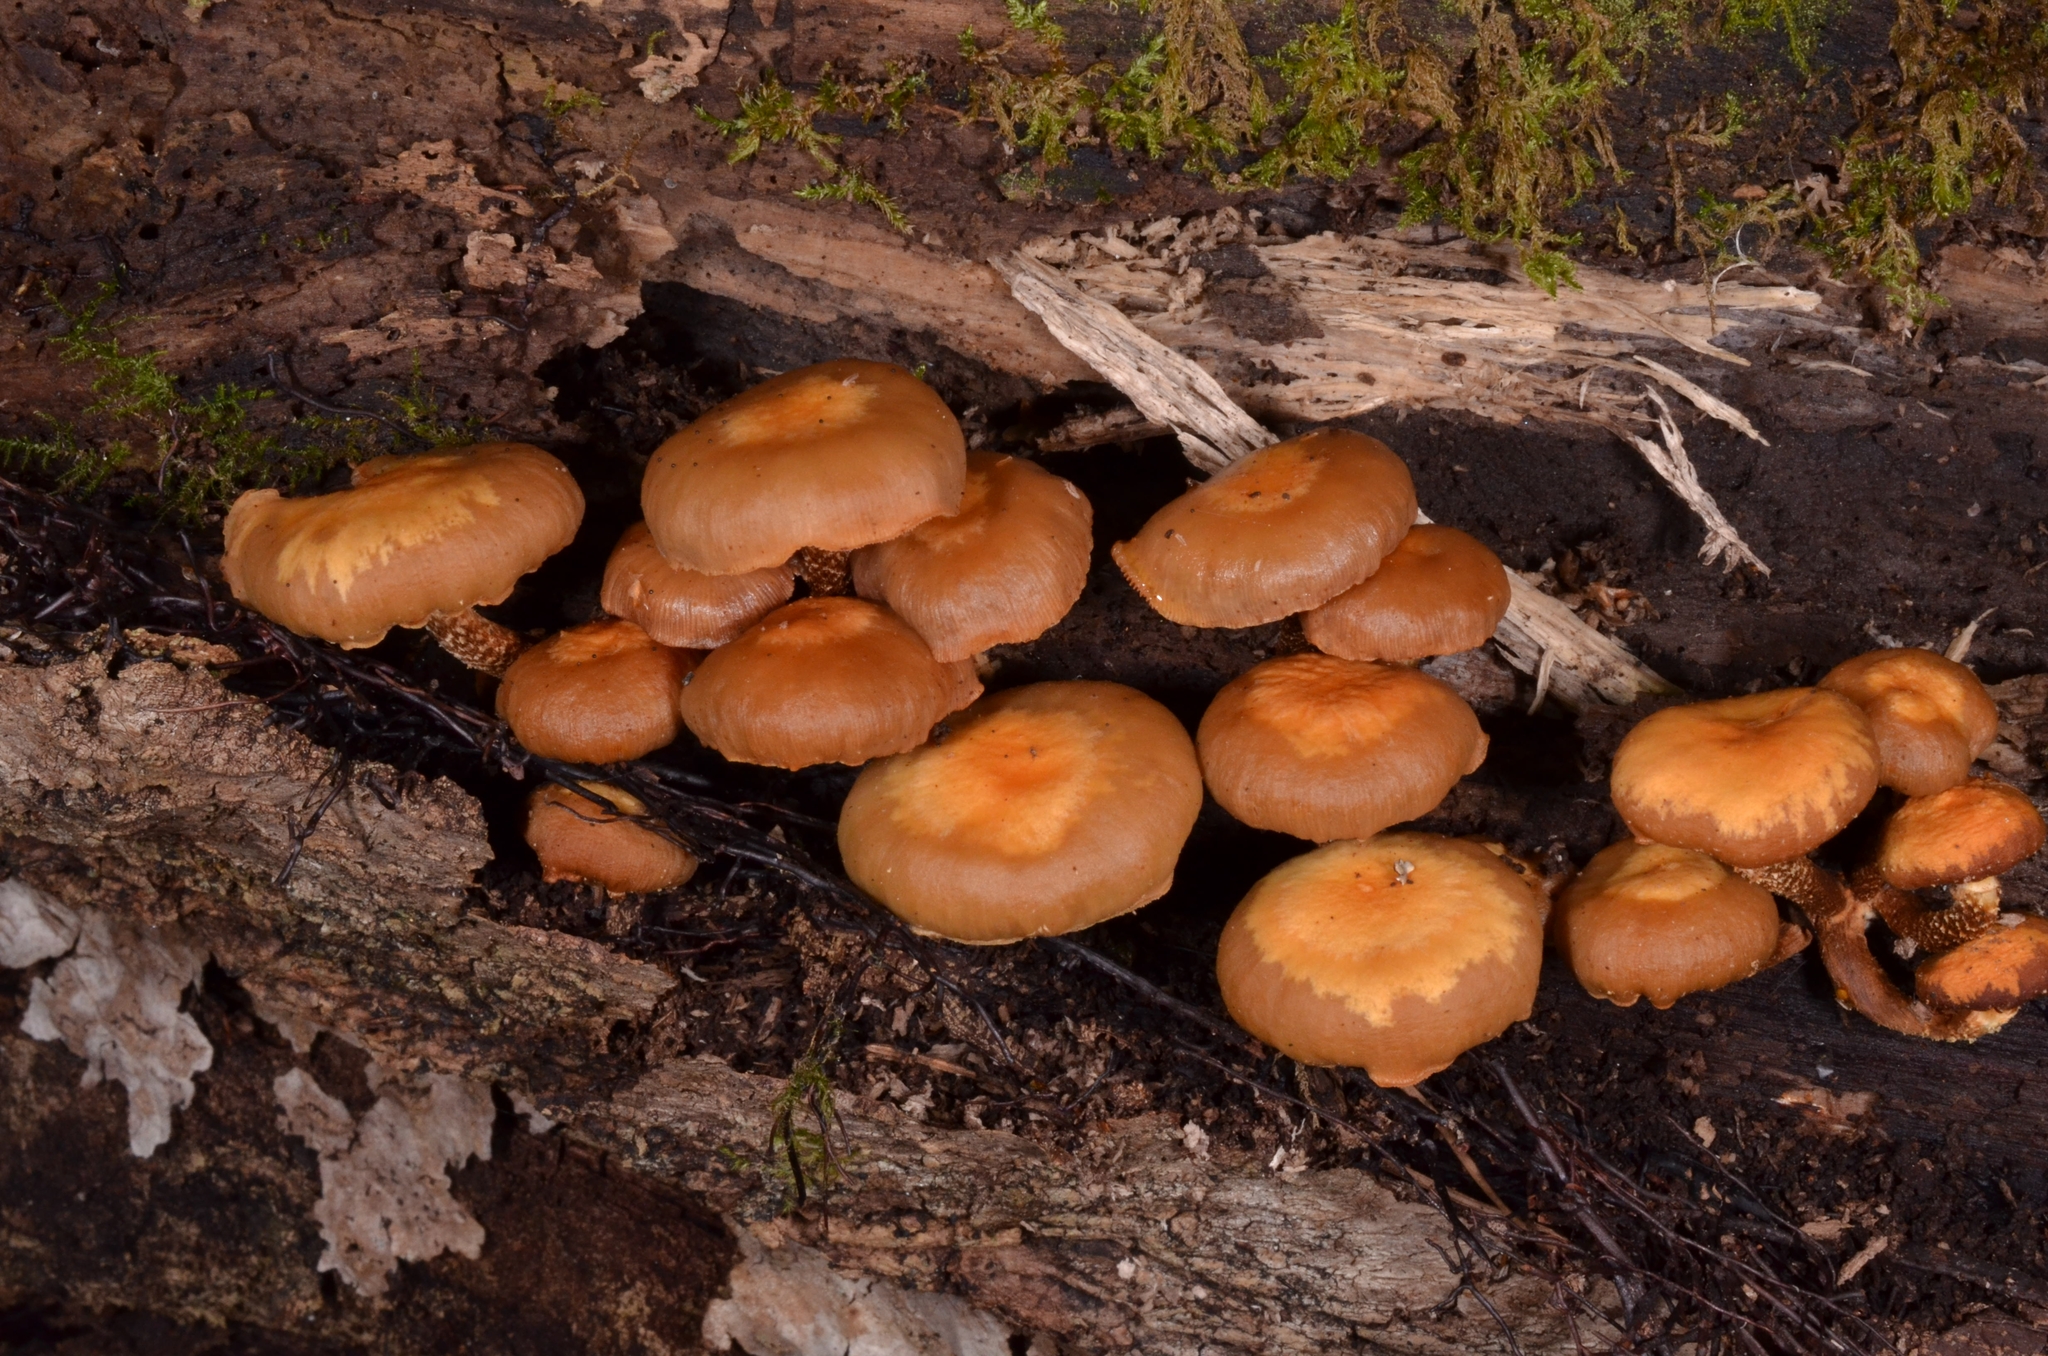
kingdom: Fungi
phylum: Basidiomycota
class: Agaricomycetes
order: Agaricales
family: Strophariaceae
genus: Kuehneromyces
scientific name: Kuehneromyces mutabilis
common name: Sheathed woodtuft
